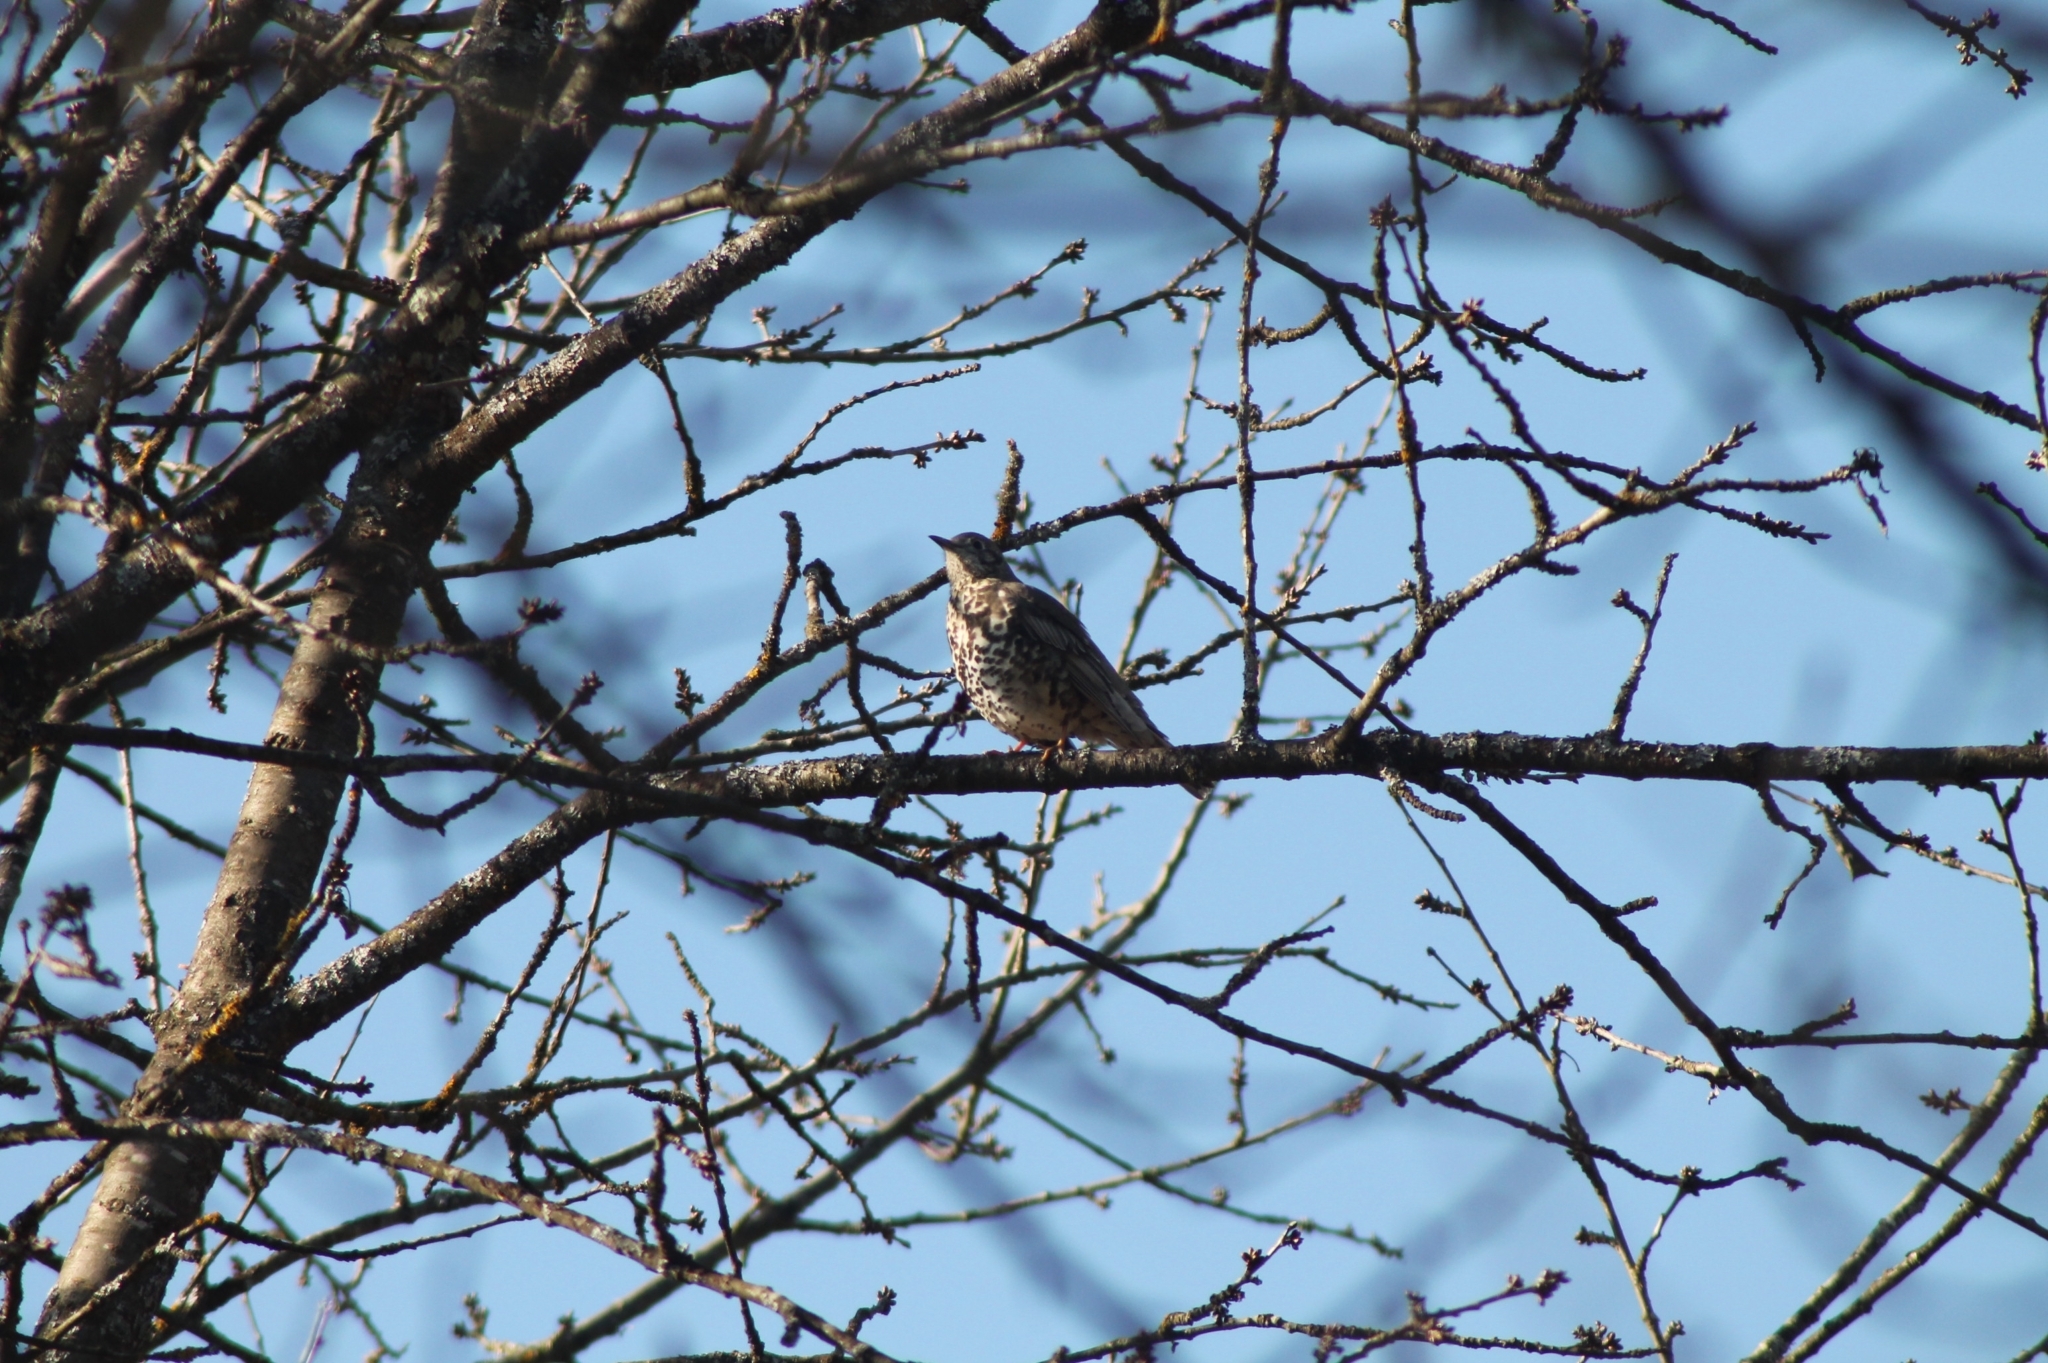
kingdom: Animalia
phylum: Chordata
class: Aves
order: Passeriformes
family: Turdidae
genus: Turdus
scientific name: Turdus viscivorus
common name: Mistle thrush
